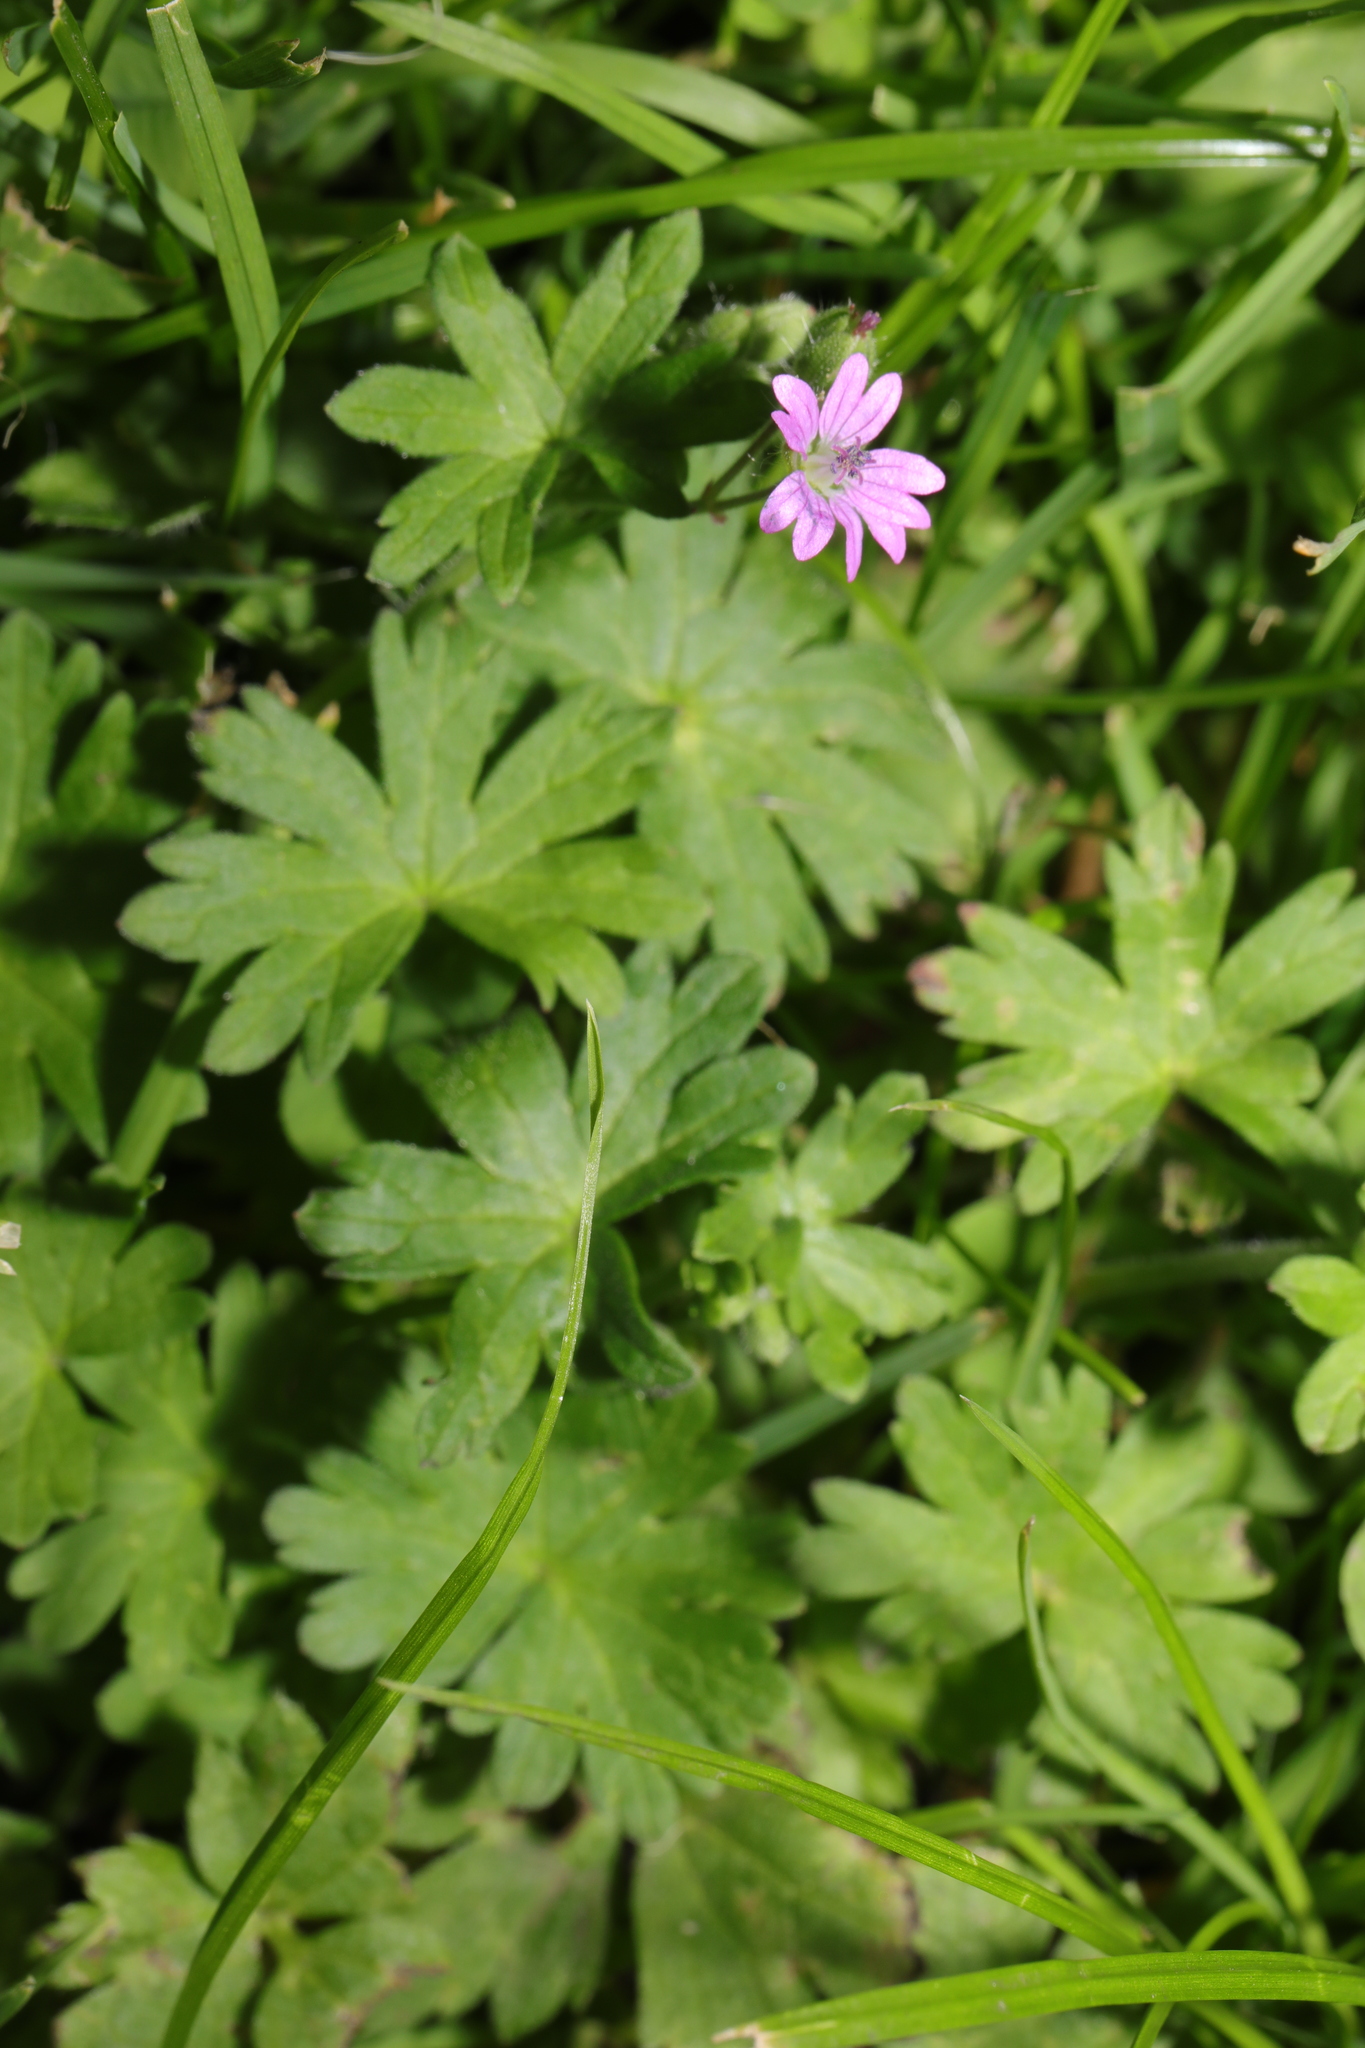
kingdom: Plantae
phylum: Tracheophyta
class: Magnoliopsida
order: Geraniales
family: Geraniaceae
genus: Geranium
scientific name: Geranium molle
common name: Dove's-foot crane's-bill
